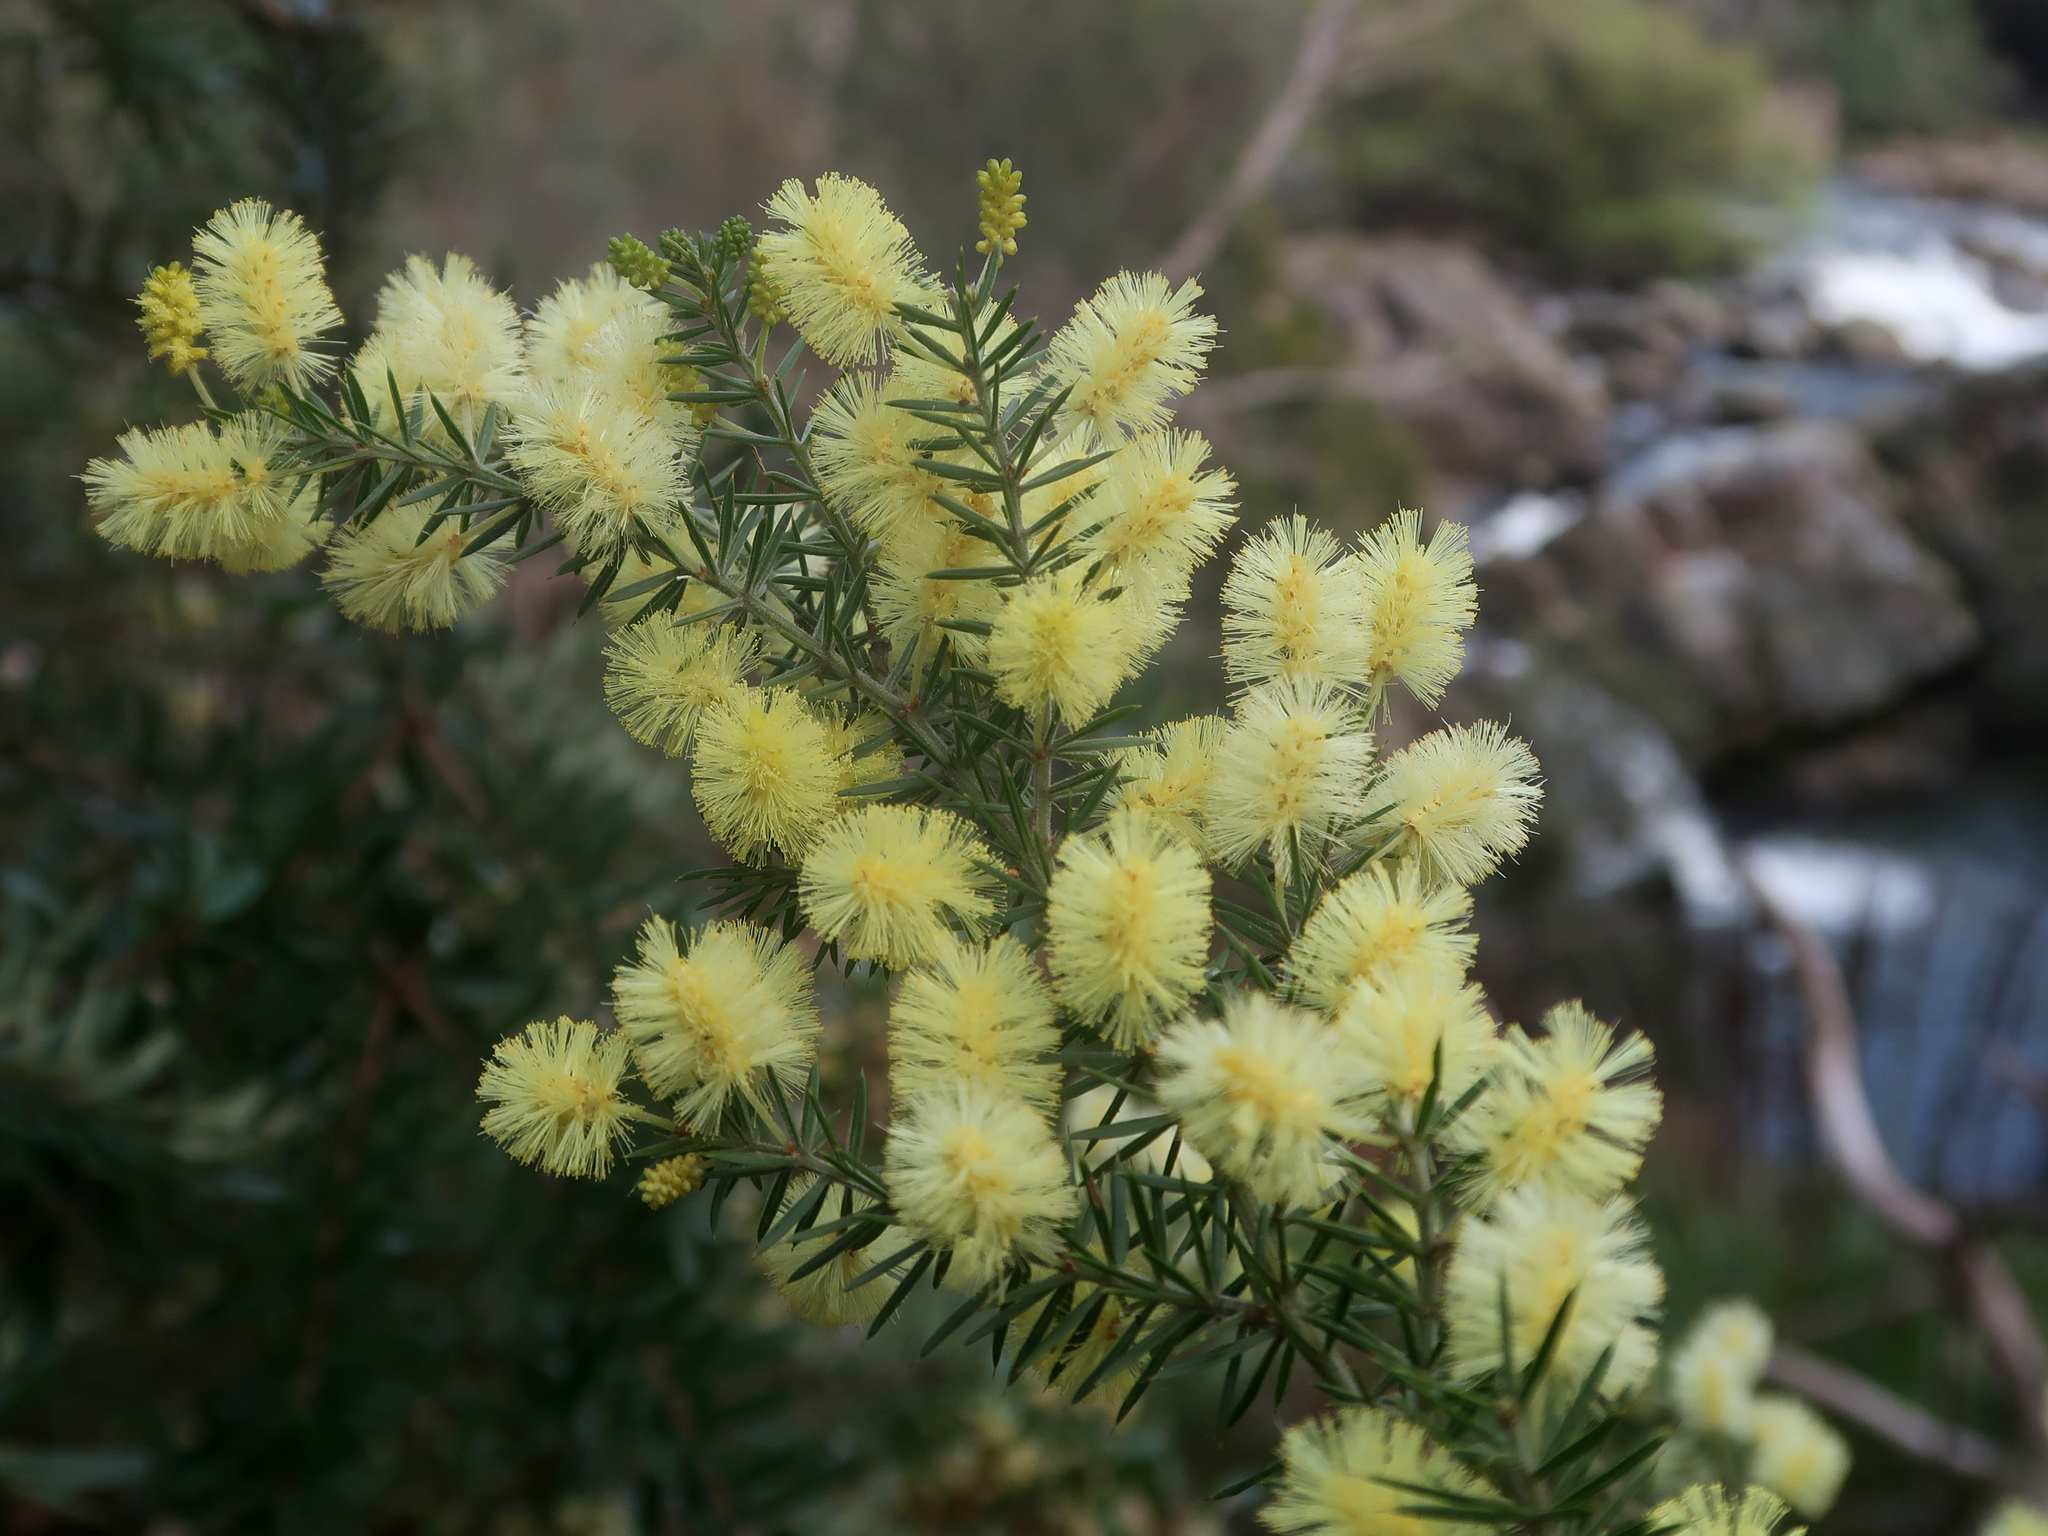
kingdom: Plantae
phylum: Tracheophyta
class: Magnoliopsida
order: Fabales
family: Fabaceae
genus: Acacia
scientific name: Acacia verticillata
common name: Prickly moses
